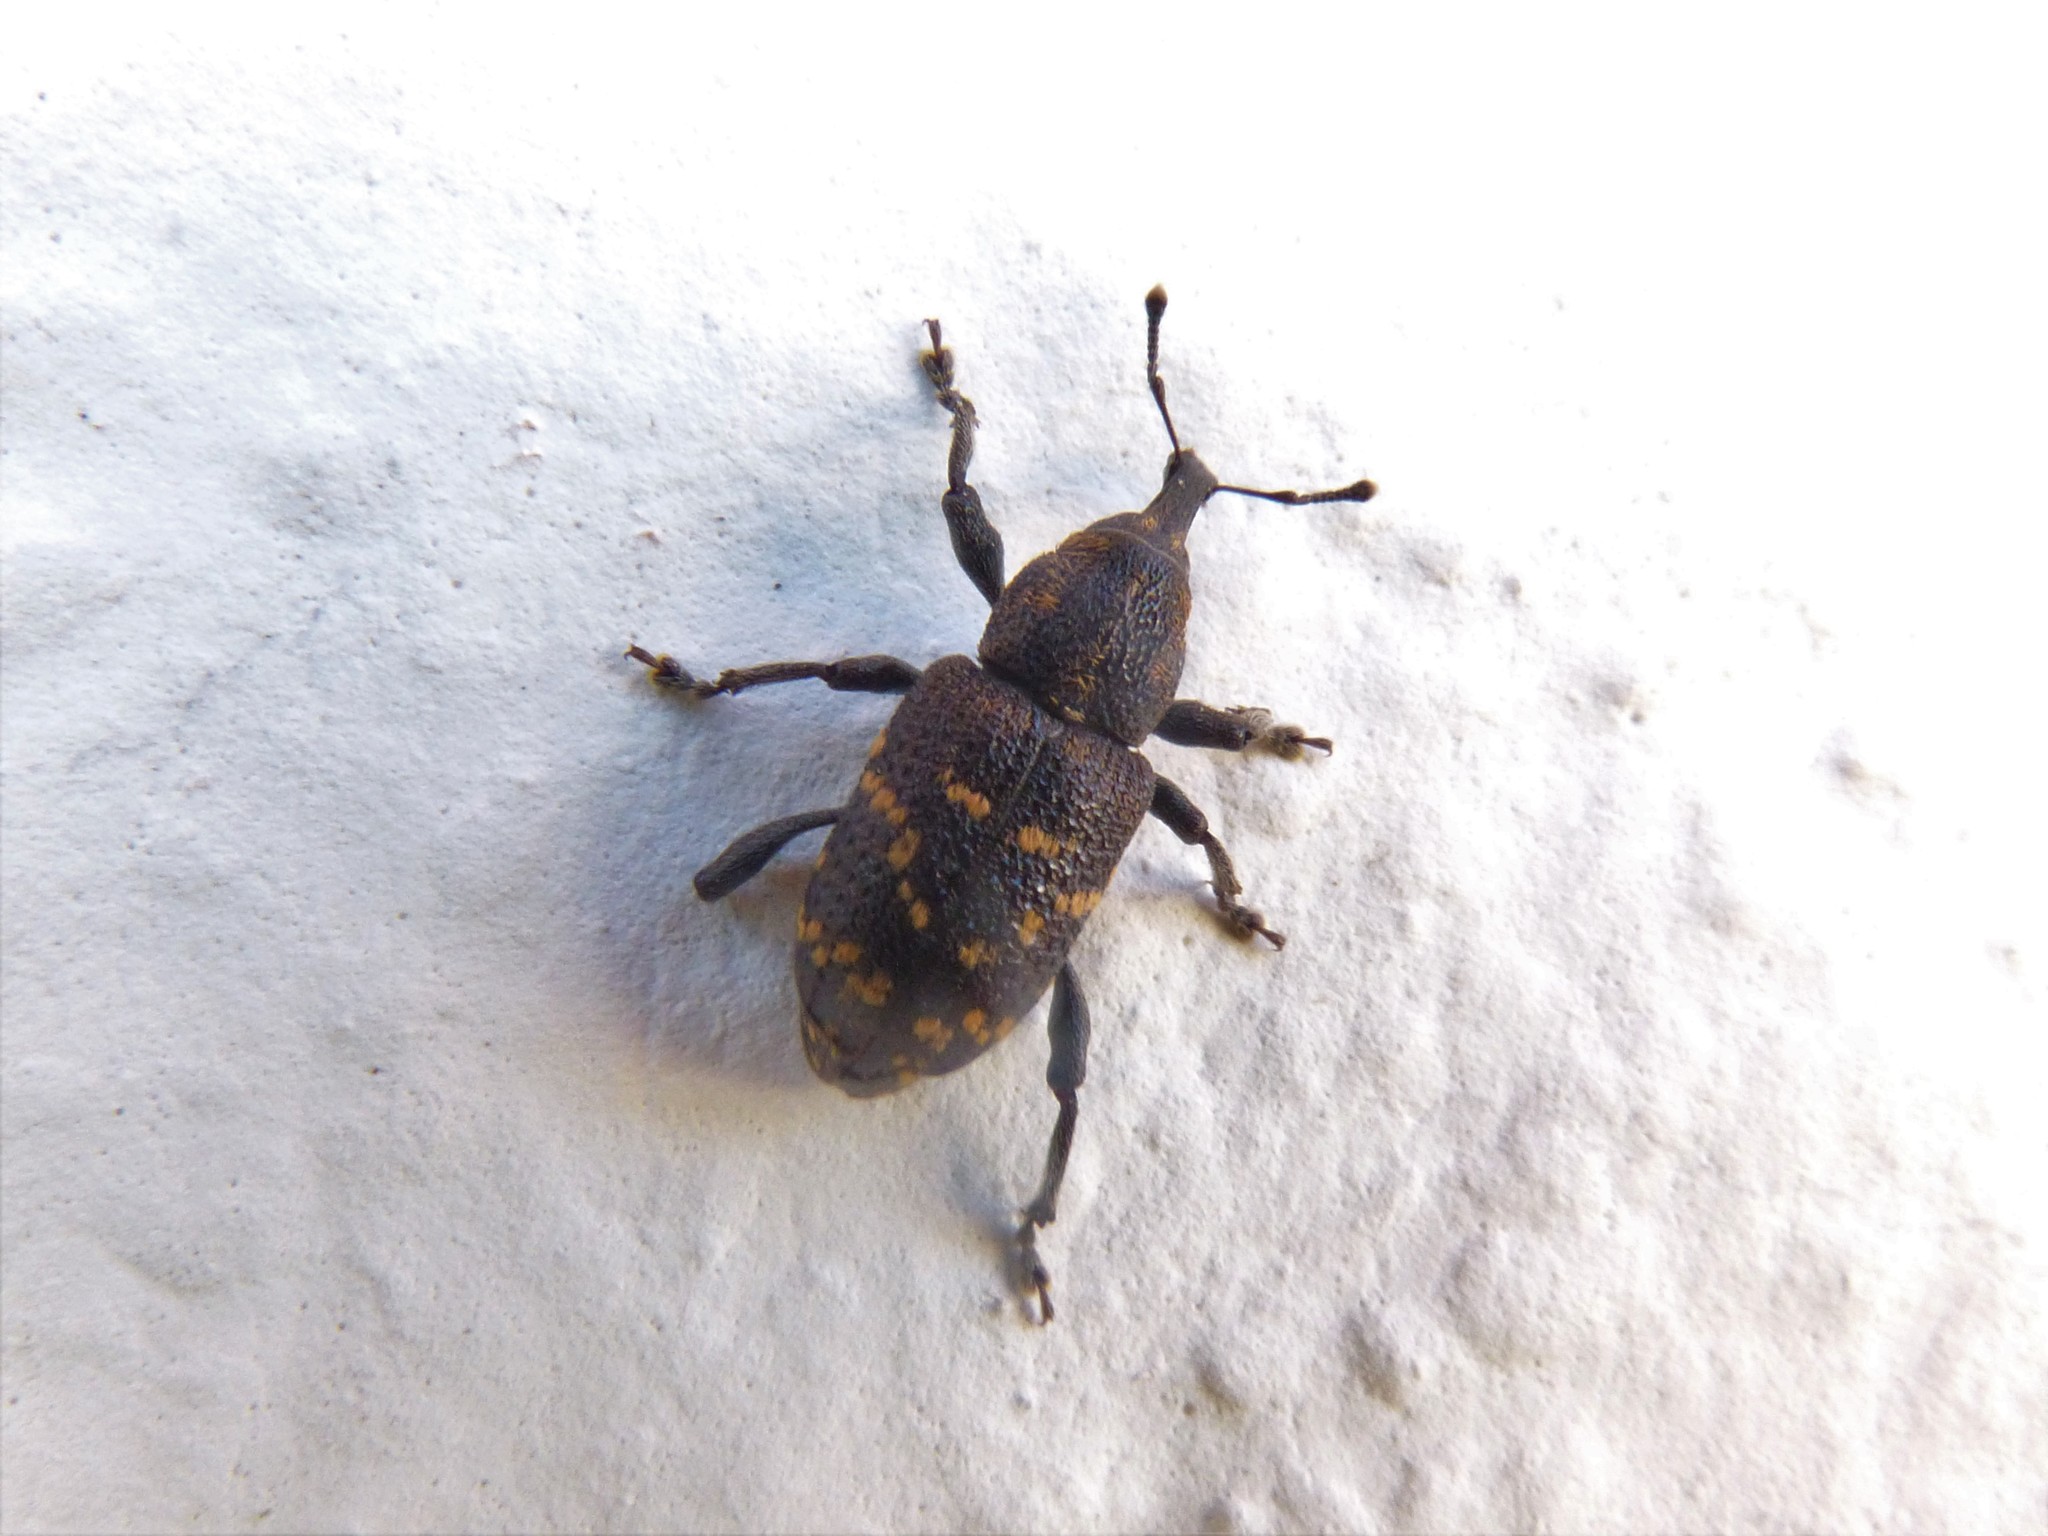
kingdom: Animalia
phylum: Arthropoda
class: Insecta
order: Coleoptera
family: Curculionidae
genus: Hylobius
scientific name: Hylobius abietis
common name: Large pine weevil
